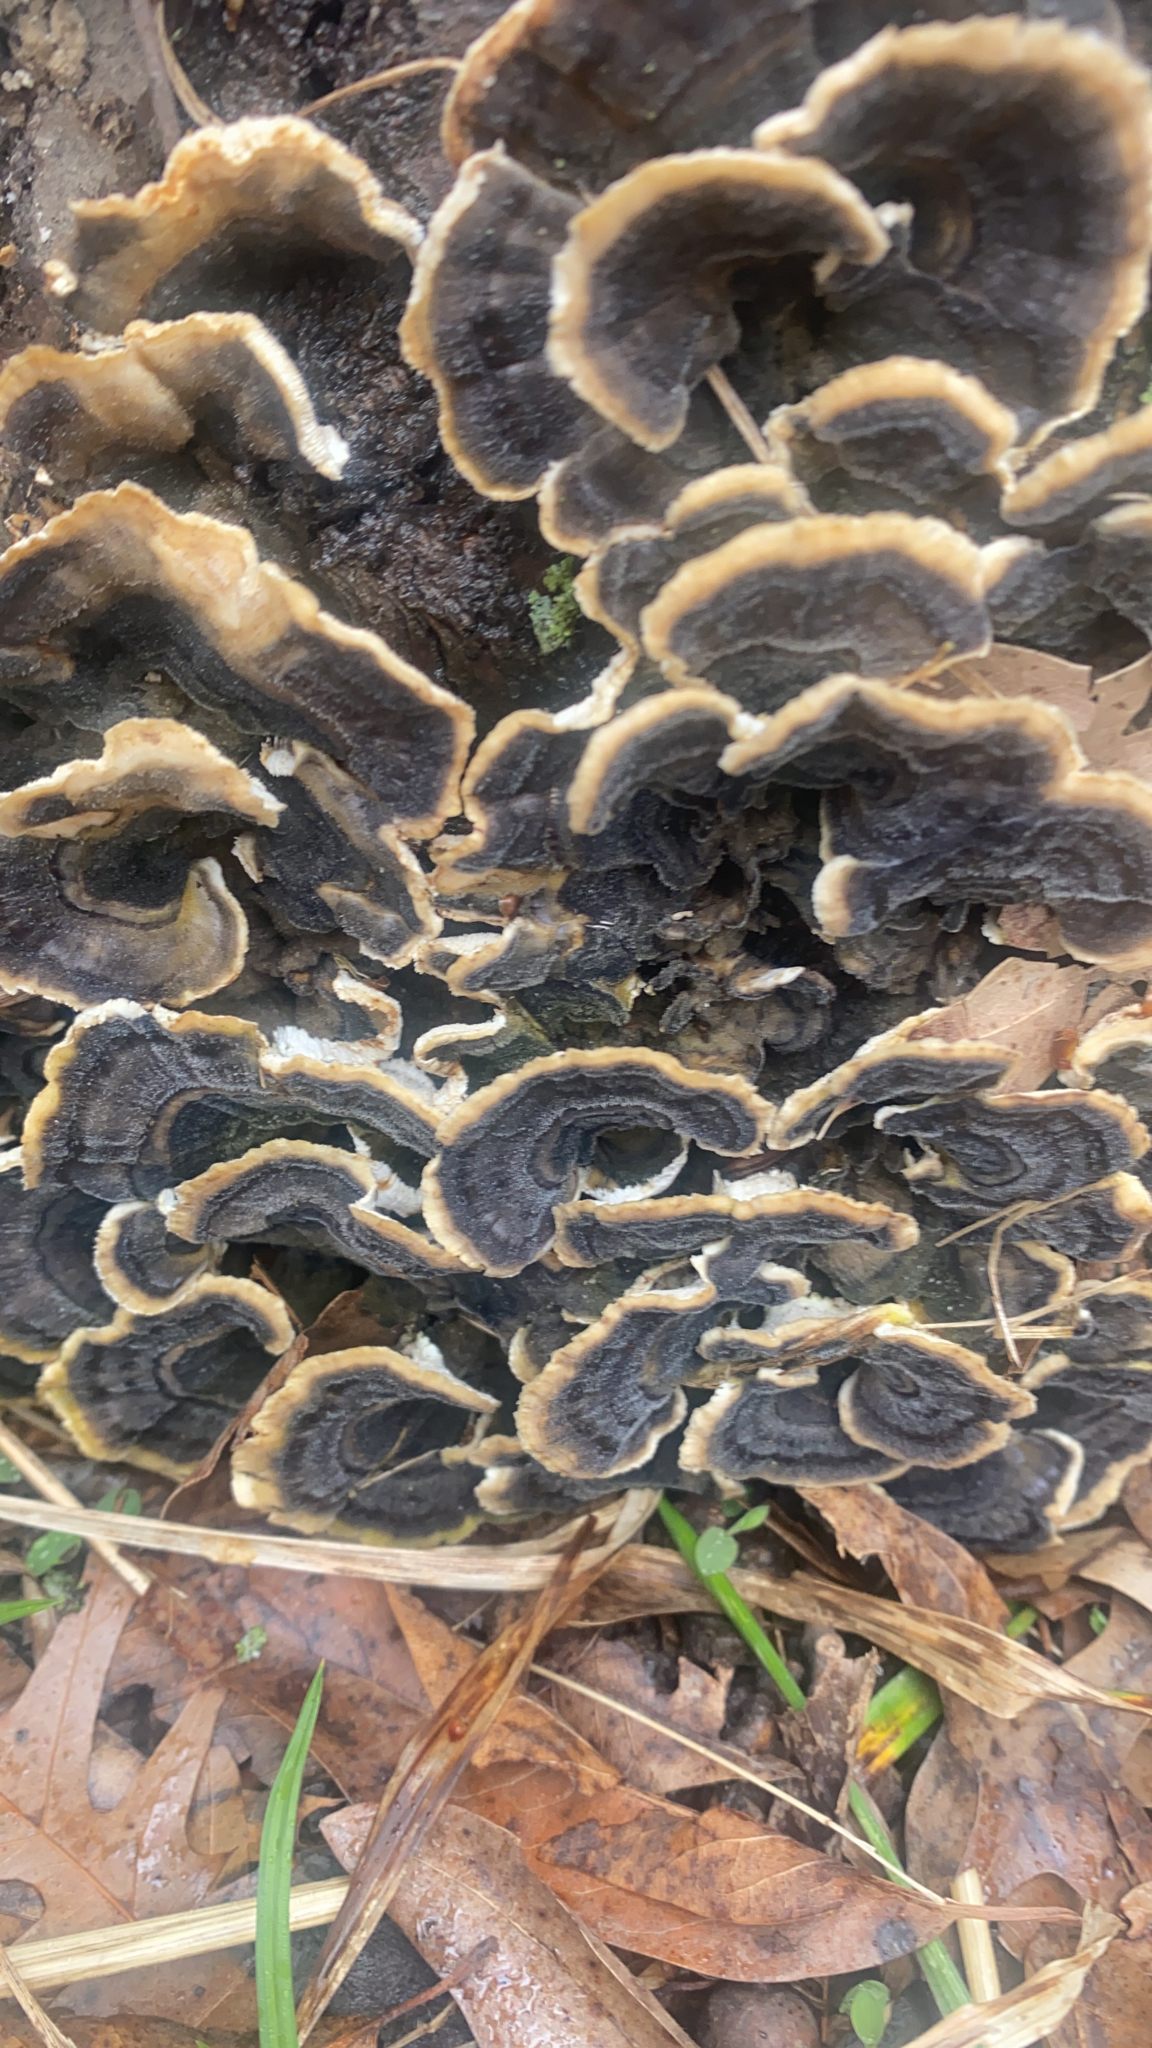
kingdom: Fungi
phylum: Basidiomycota
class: Agaricomycetes
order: Polyporales
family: Polyporaceae
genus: Trametes
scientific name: Trametes versicolor
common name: Turkeytail
